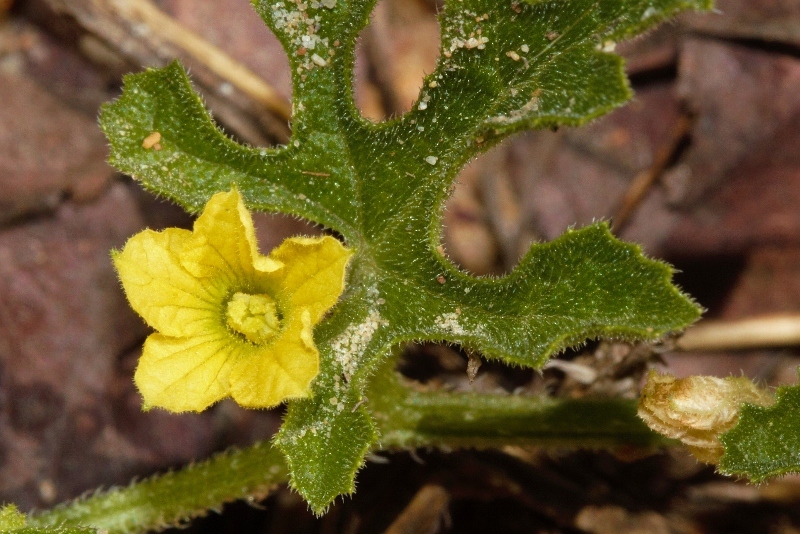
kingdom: Plantae
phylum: Tracheophyta
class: Magnoliopsida
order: Cucurbitales
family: Cucurbitaceae
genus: Cucumis
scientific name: Cucumis zeyheri
